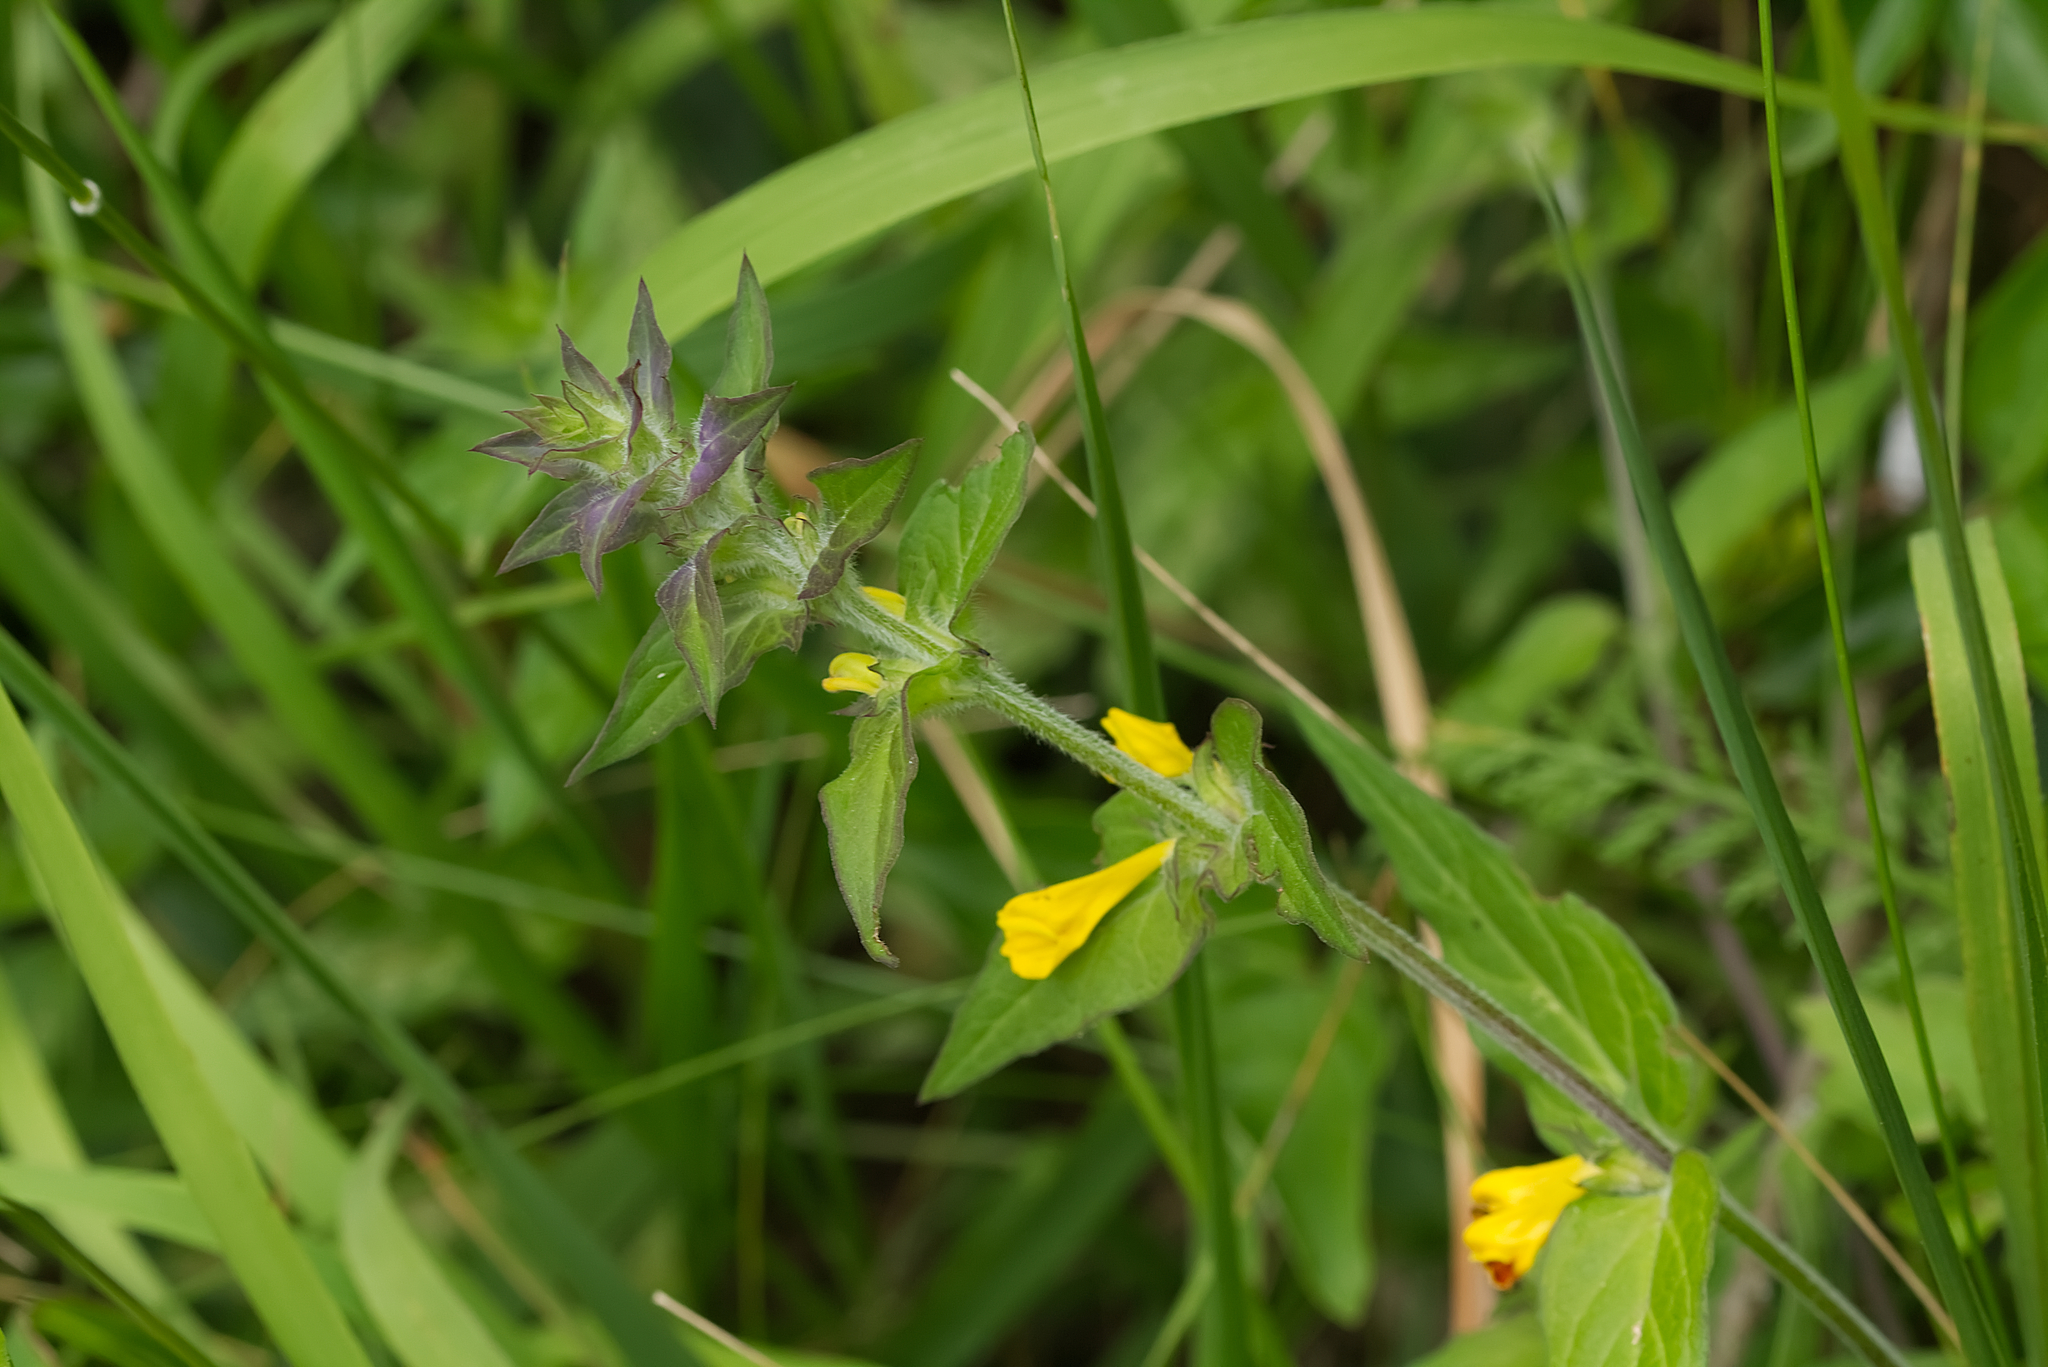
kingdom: Plantae
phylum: Tracheophyta
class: Magnoliopsida
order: Lamiales
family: Orobanchaceae
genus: Melampyrum
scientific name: Melampyrum nemorosum
